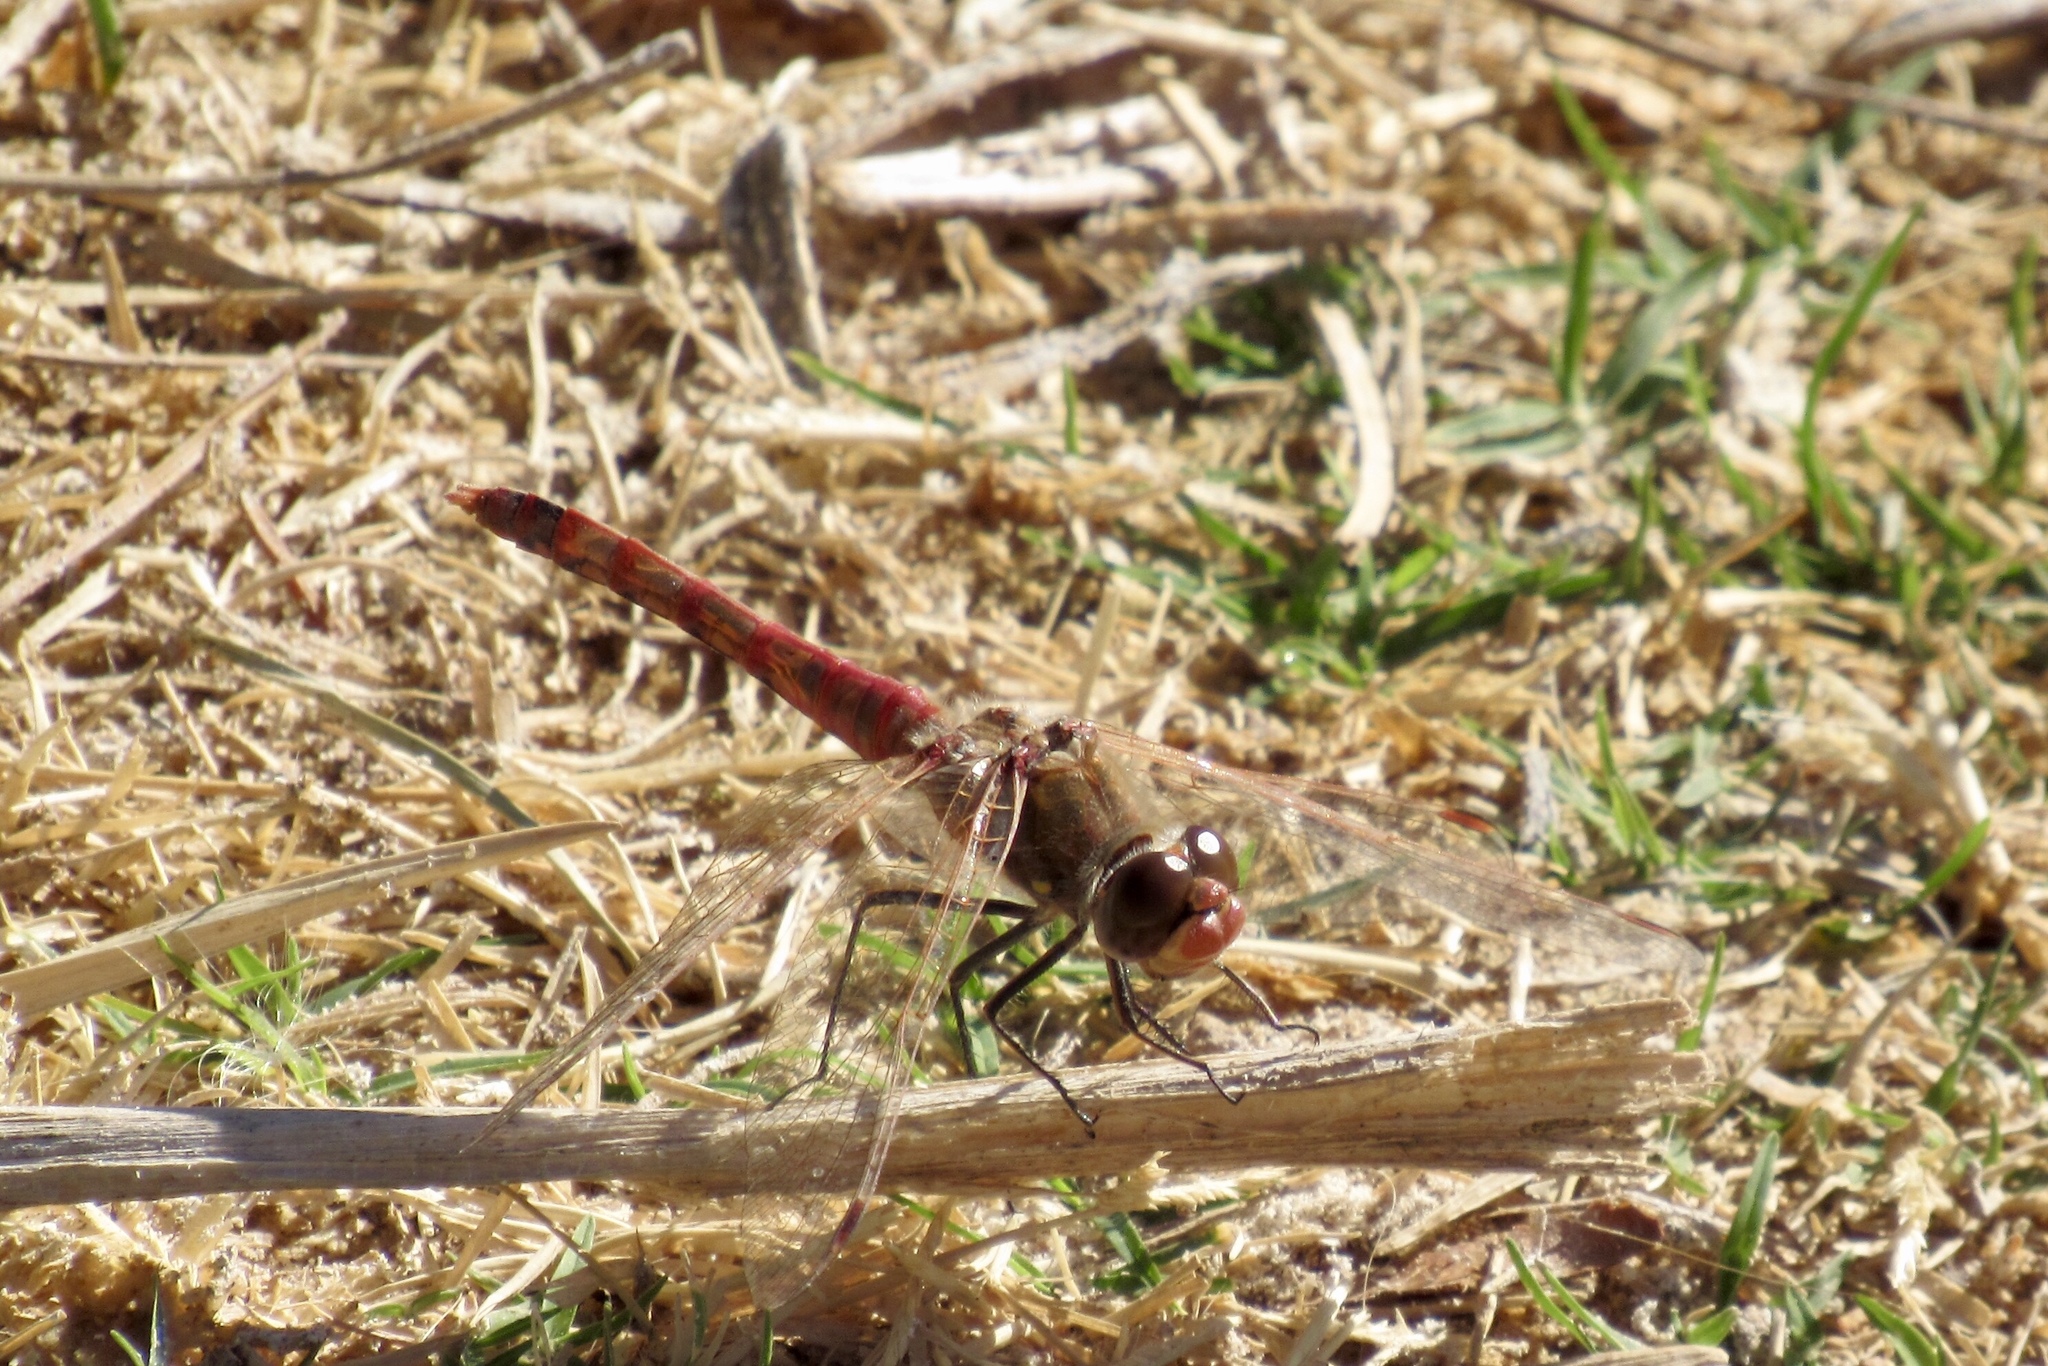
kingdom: Animalia
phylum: Arthropoda
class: Insecta
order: Odonata
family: Libellulidae
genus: Sympetrum
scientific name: Sympetrum corruptum
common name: Variegated meadowhawk
